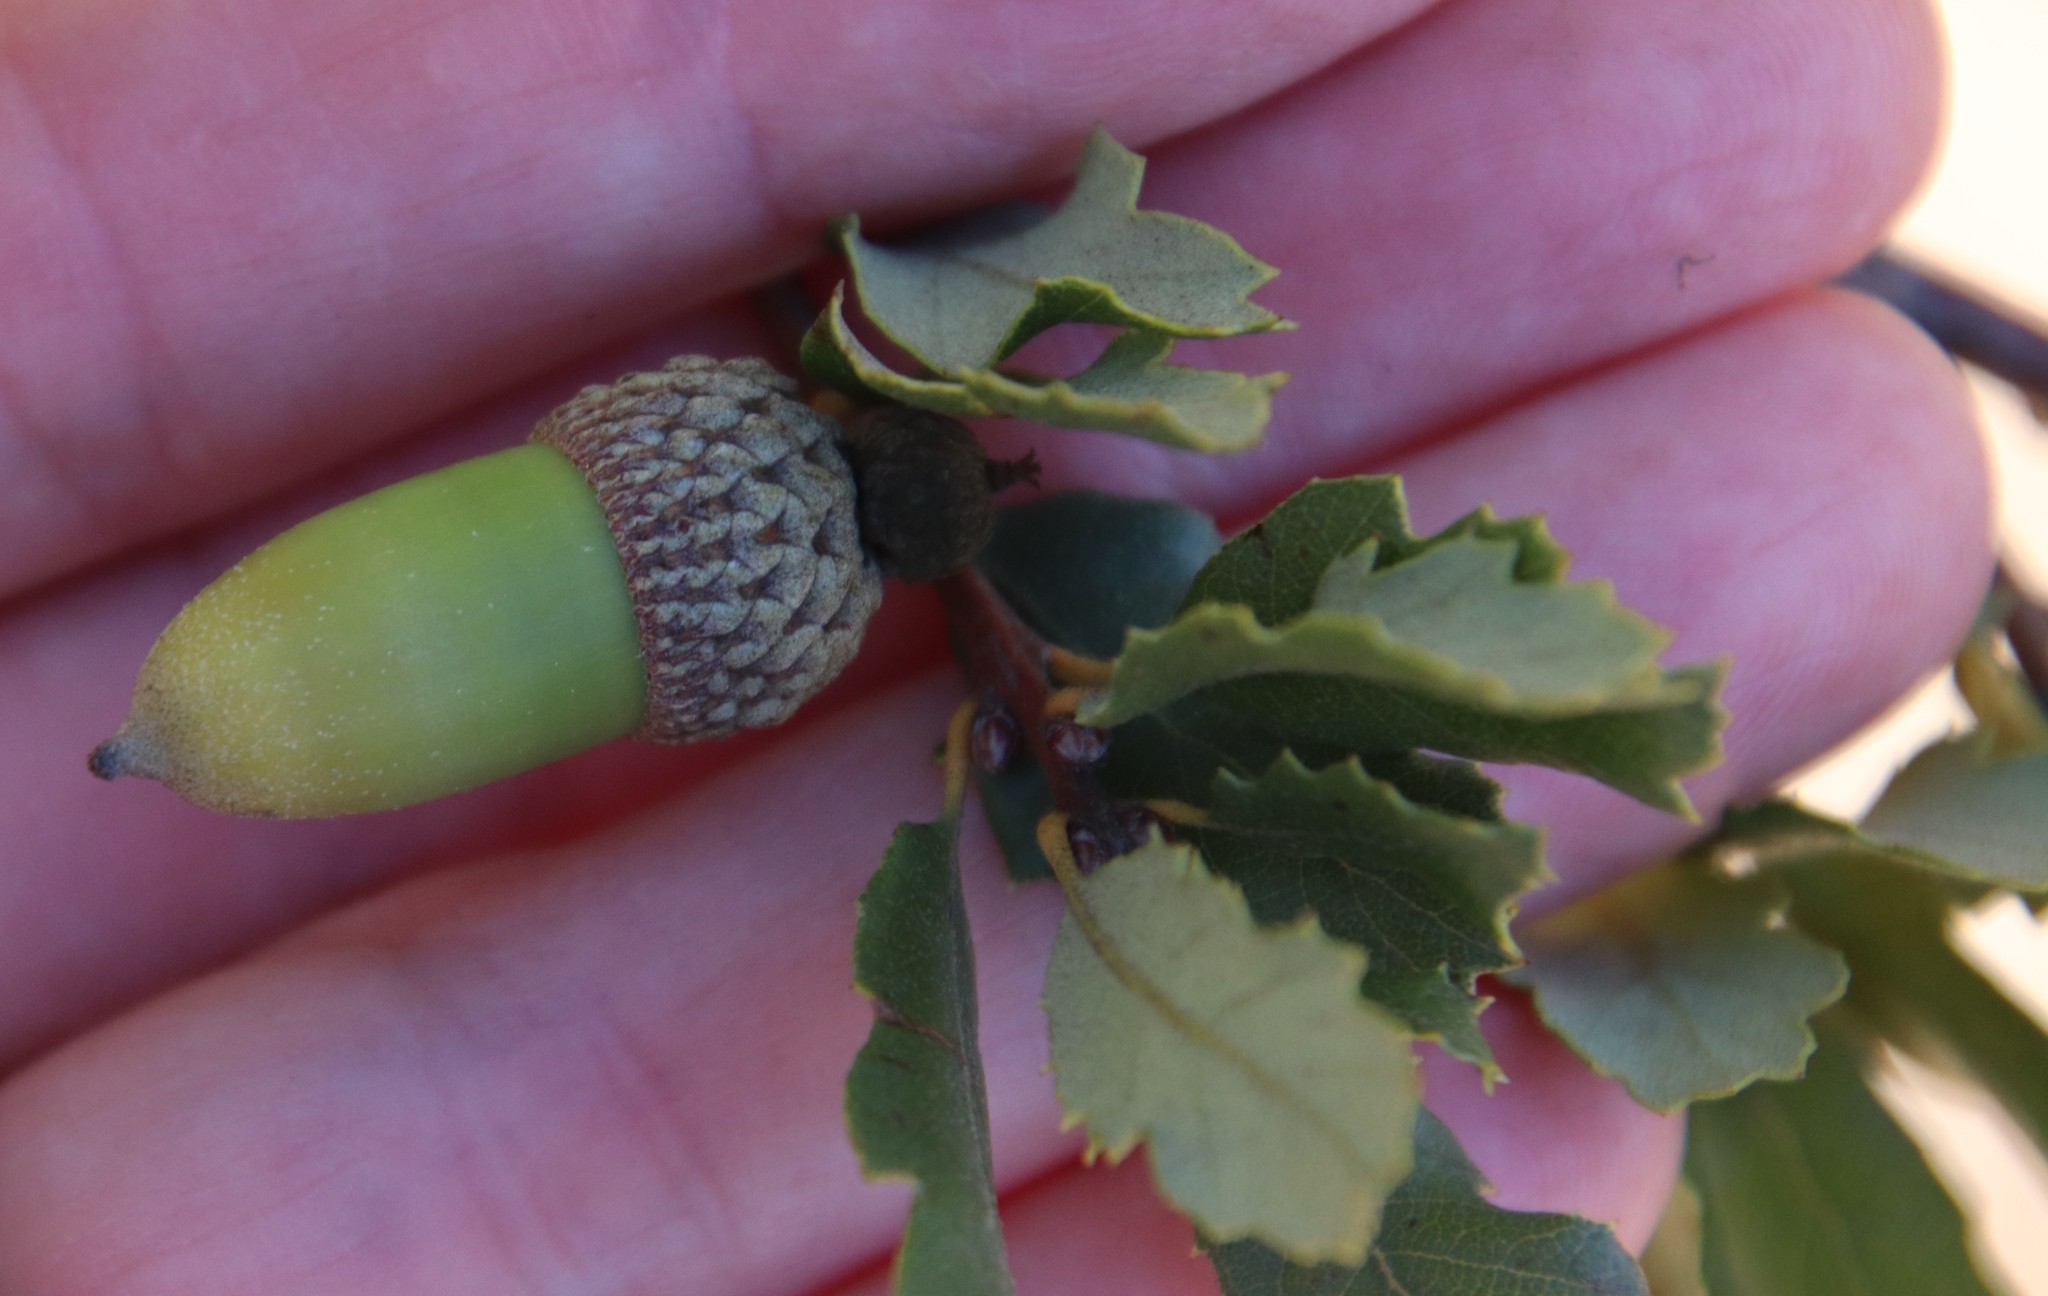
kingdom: Plantae
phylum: Tracheophyta
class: Magnoliopsida
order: Fagales
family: Fagaceae
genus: Quercus
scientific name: Quercus berberidifolia
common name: California scrub oak
